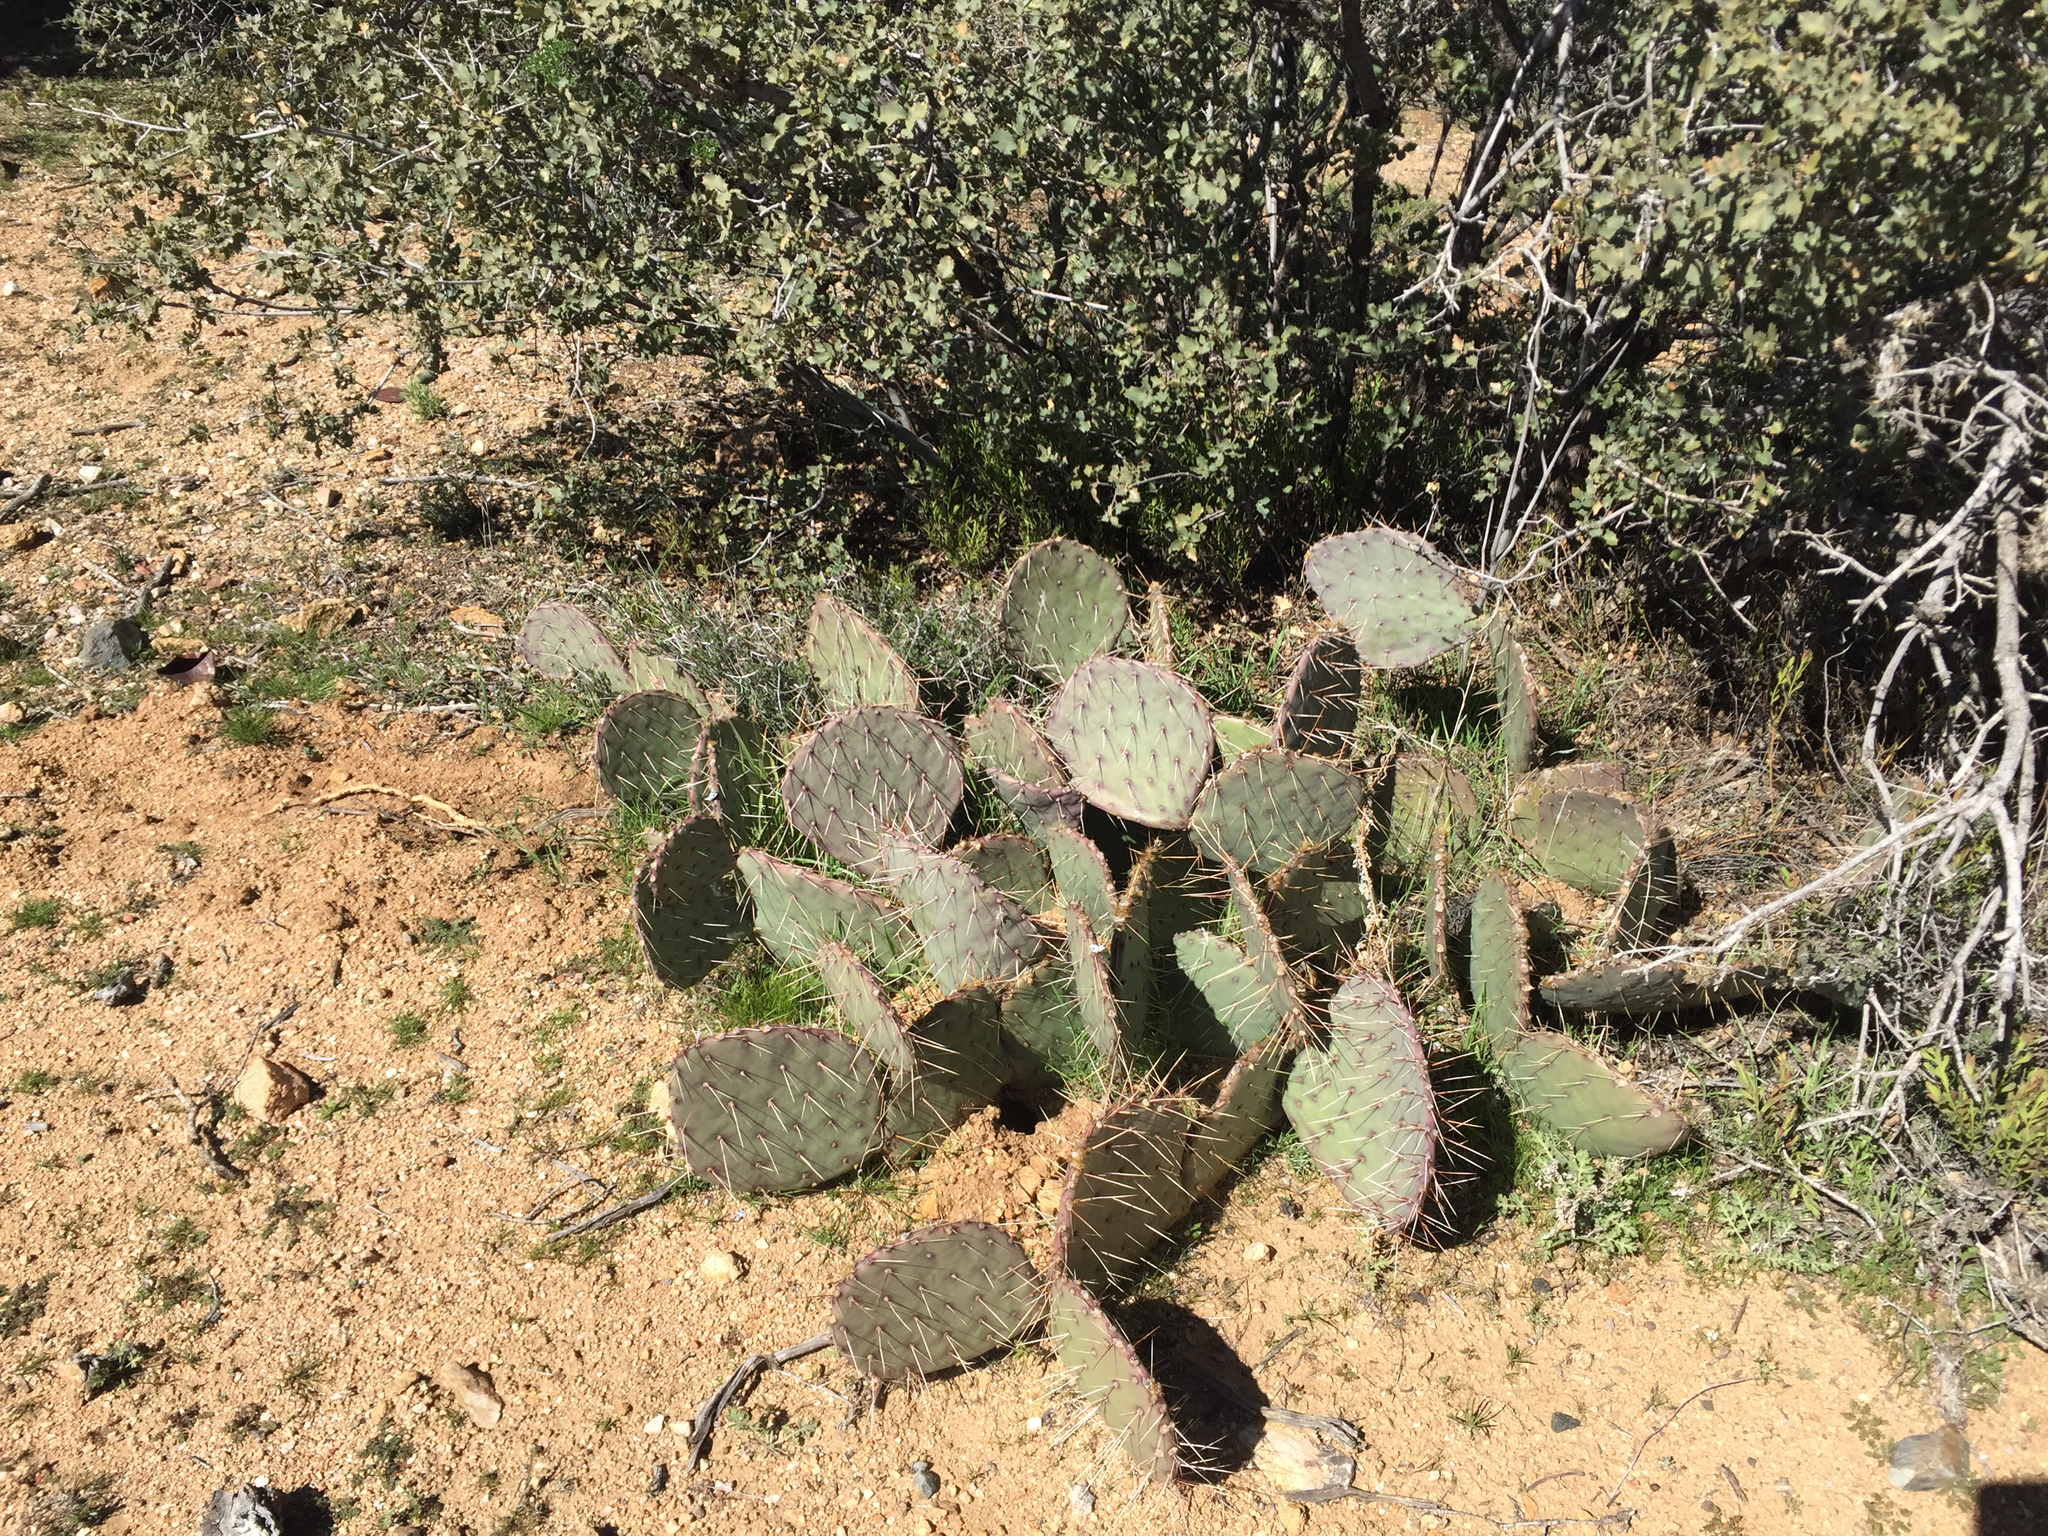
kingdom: Plantae
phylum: Tracheophyta
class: Magnoliopsida
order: Caryophyllales
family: Cactaceae
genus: Opuntia
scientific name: Opuntia phaeacantha
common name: New mexico prickly-pear
